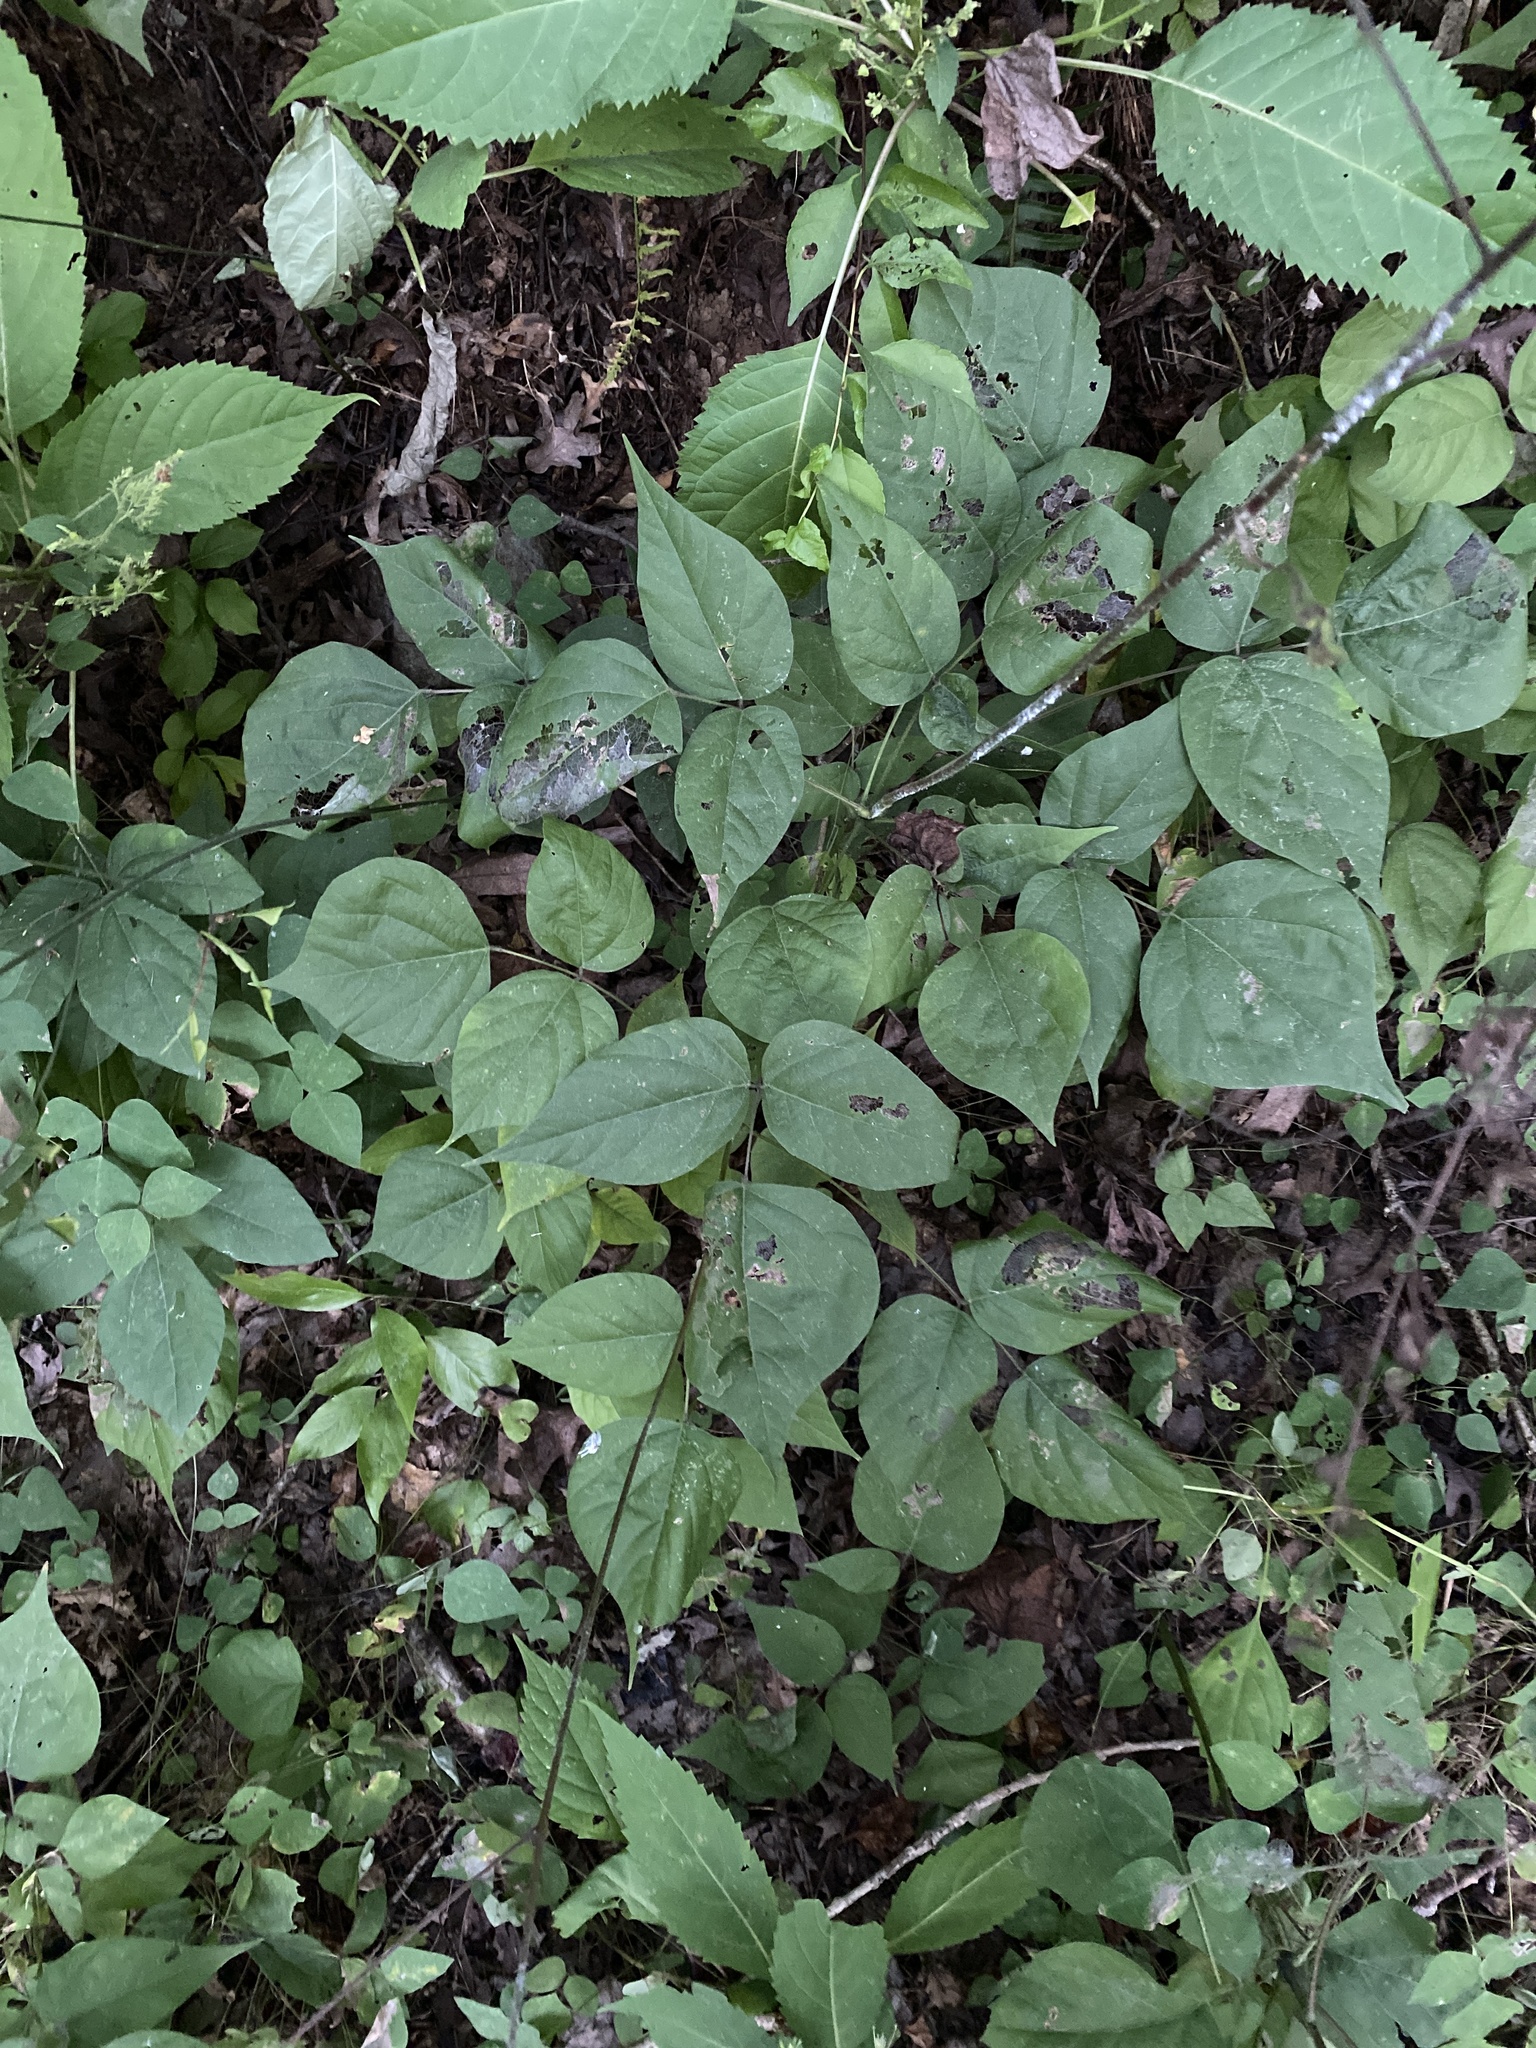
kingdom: Plantae
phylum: Tracheophyta
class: Magnoliopsida
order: Fabales
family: Fabaceae
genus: Hylodesmum
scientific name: Hylodesmum glutinosum
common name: Clustered-leaved tick-trefoil
